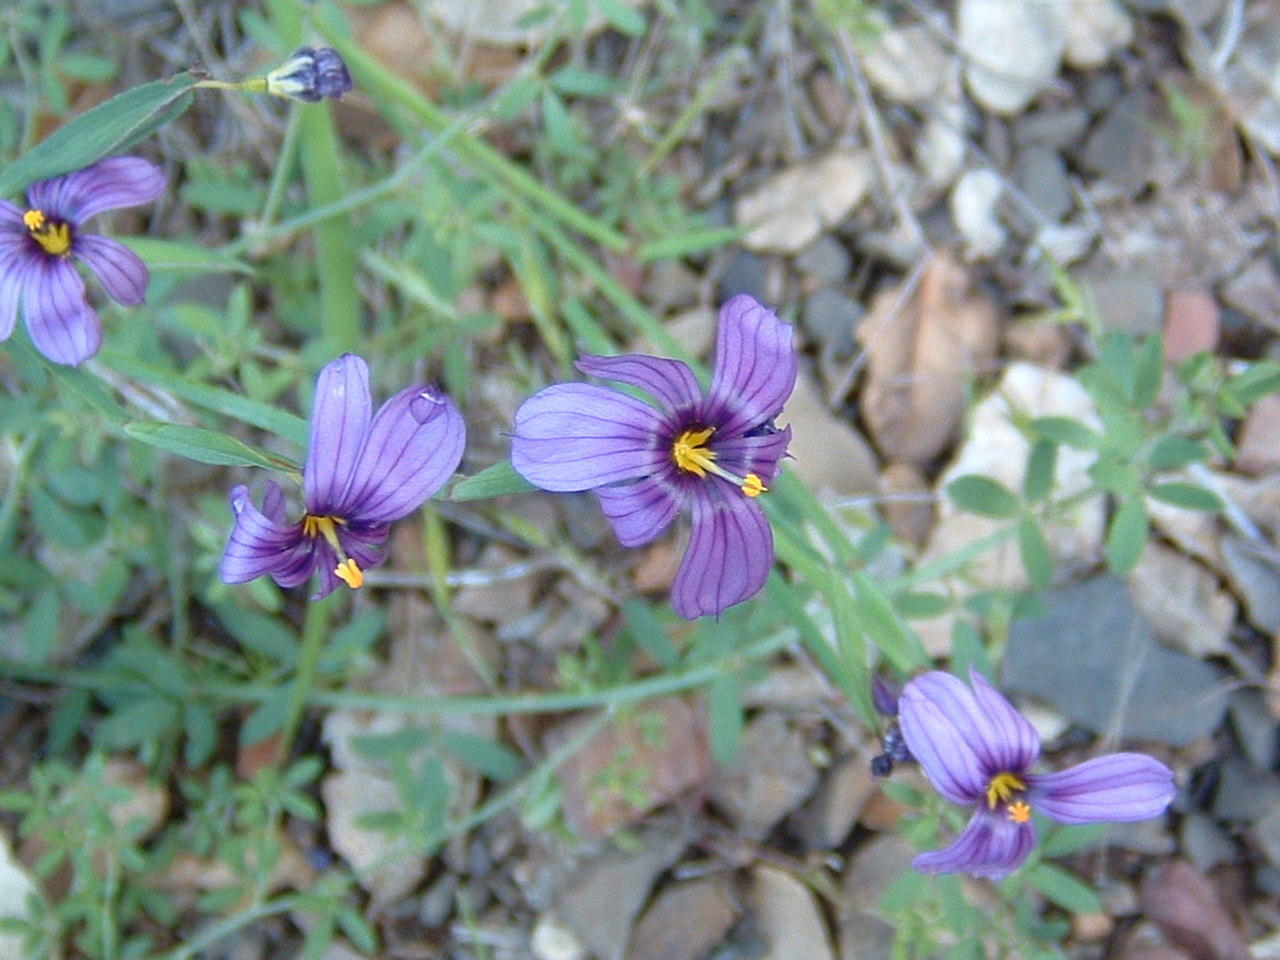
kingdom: Plantae
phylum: Tracheophyta
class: Liliopsida
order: Asparagales
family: Iridaceae
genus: Sisyrinchium
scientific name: Sisyrinchium bellum
